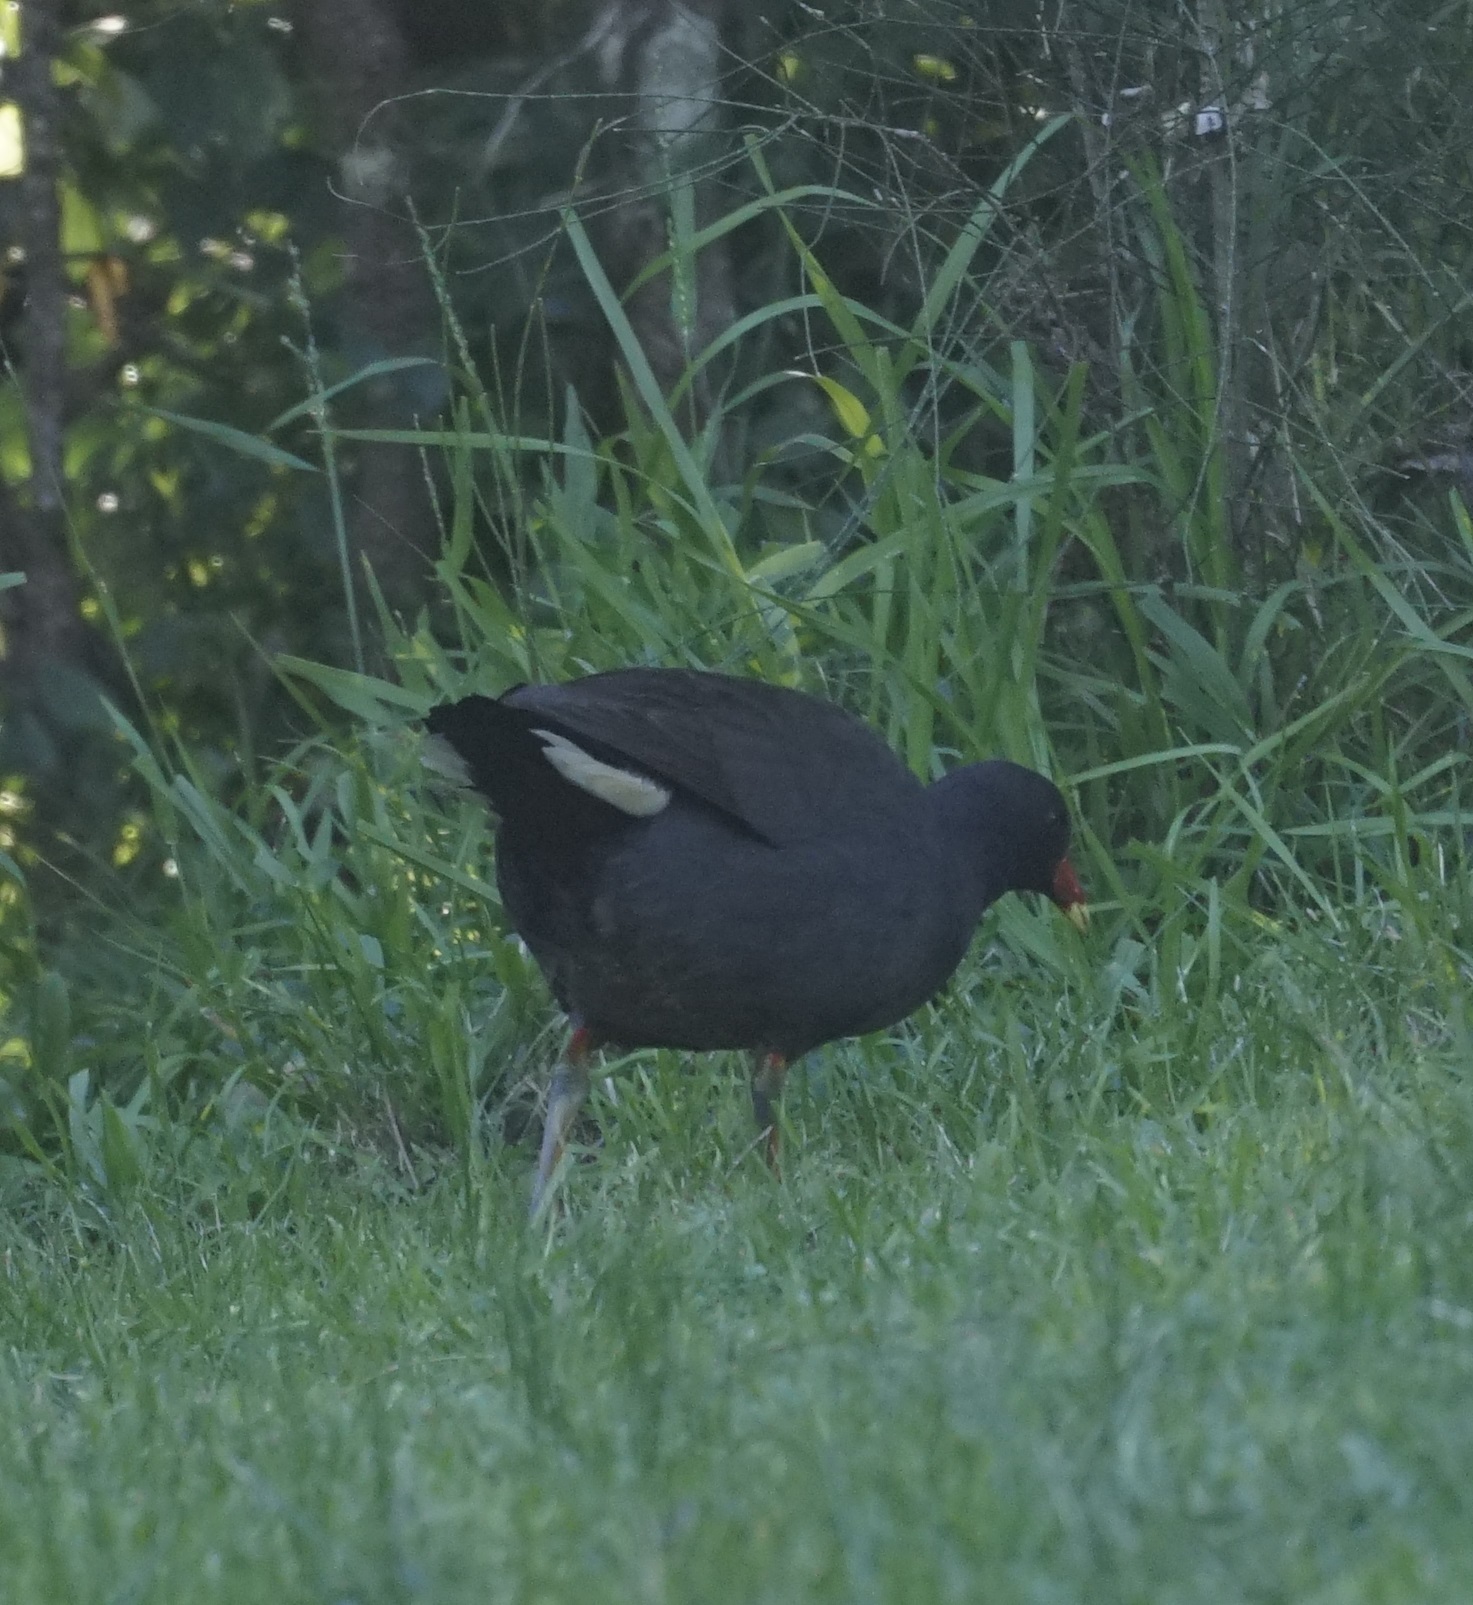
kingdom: Animalia
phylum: Chordata
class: Aves
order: Gruiformes
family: Rallidae
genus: Gallinula
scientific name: Gallinula tenebrosa
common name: Dusky moorhen
